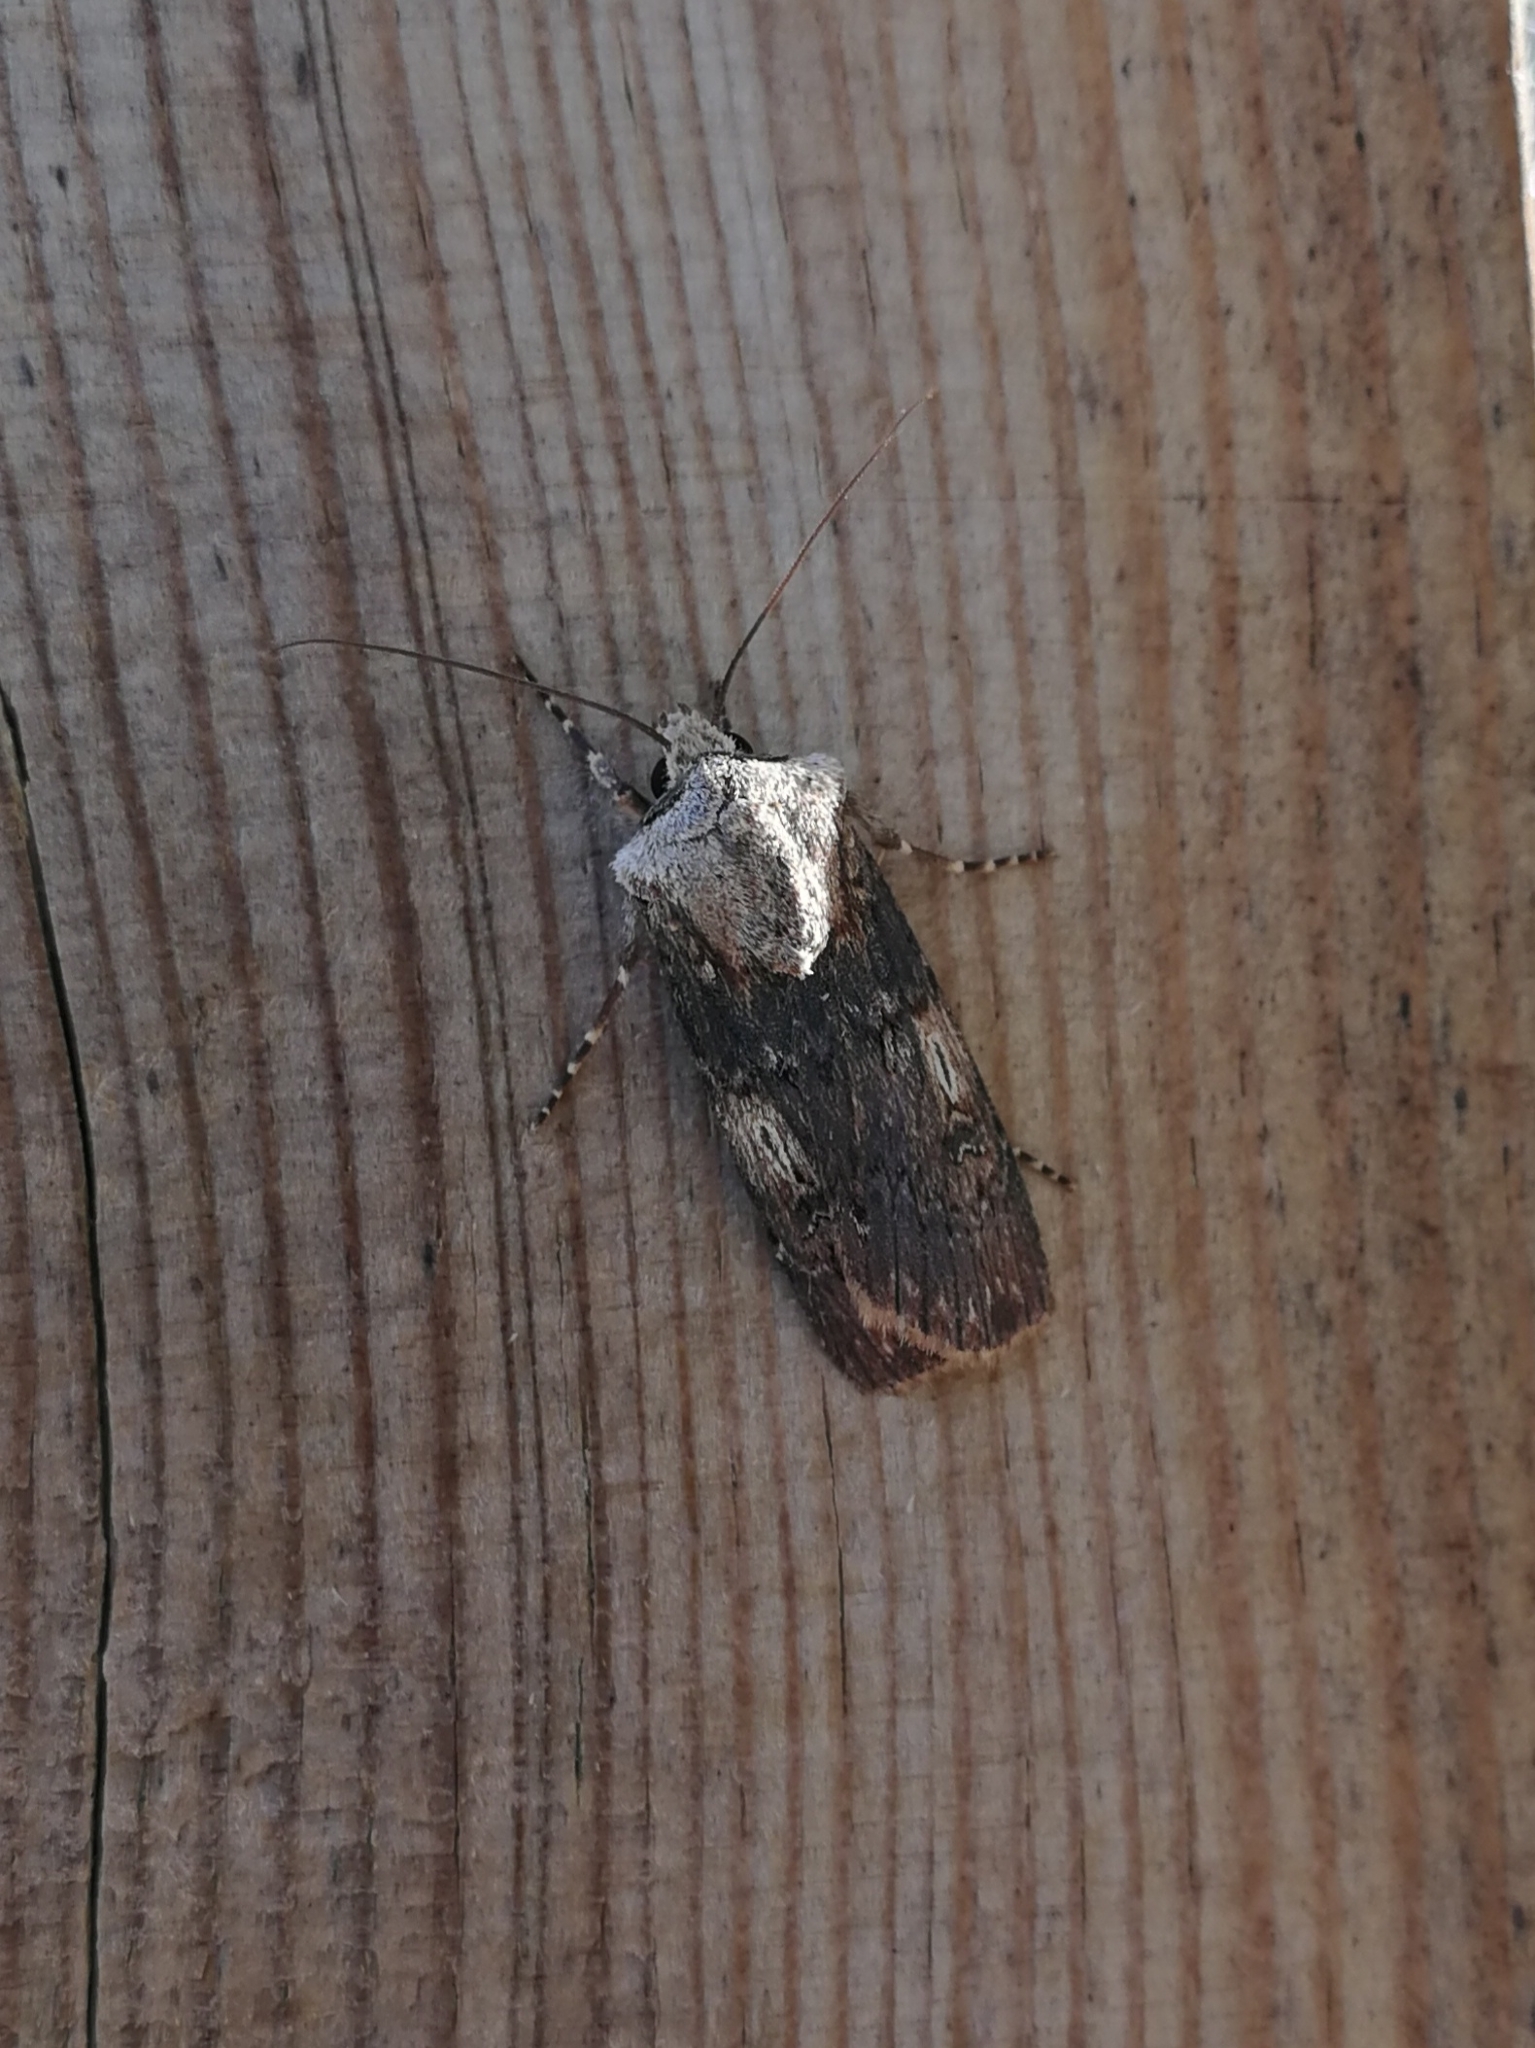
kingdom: Animalia
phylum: Arthropoda
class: Insecta
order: Lepidoptera
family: Noctuidae
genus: Agrotis
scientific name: Agrotis puta
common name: Shuttle-shaped dart
